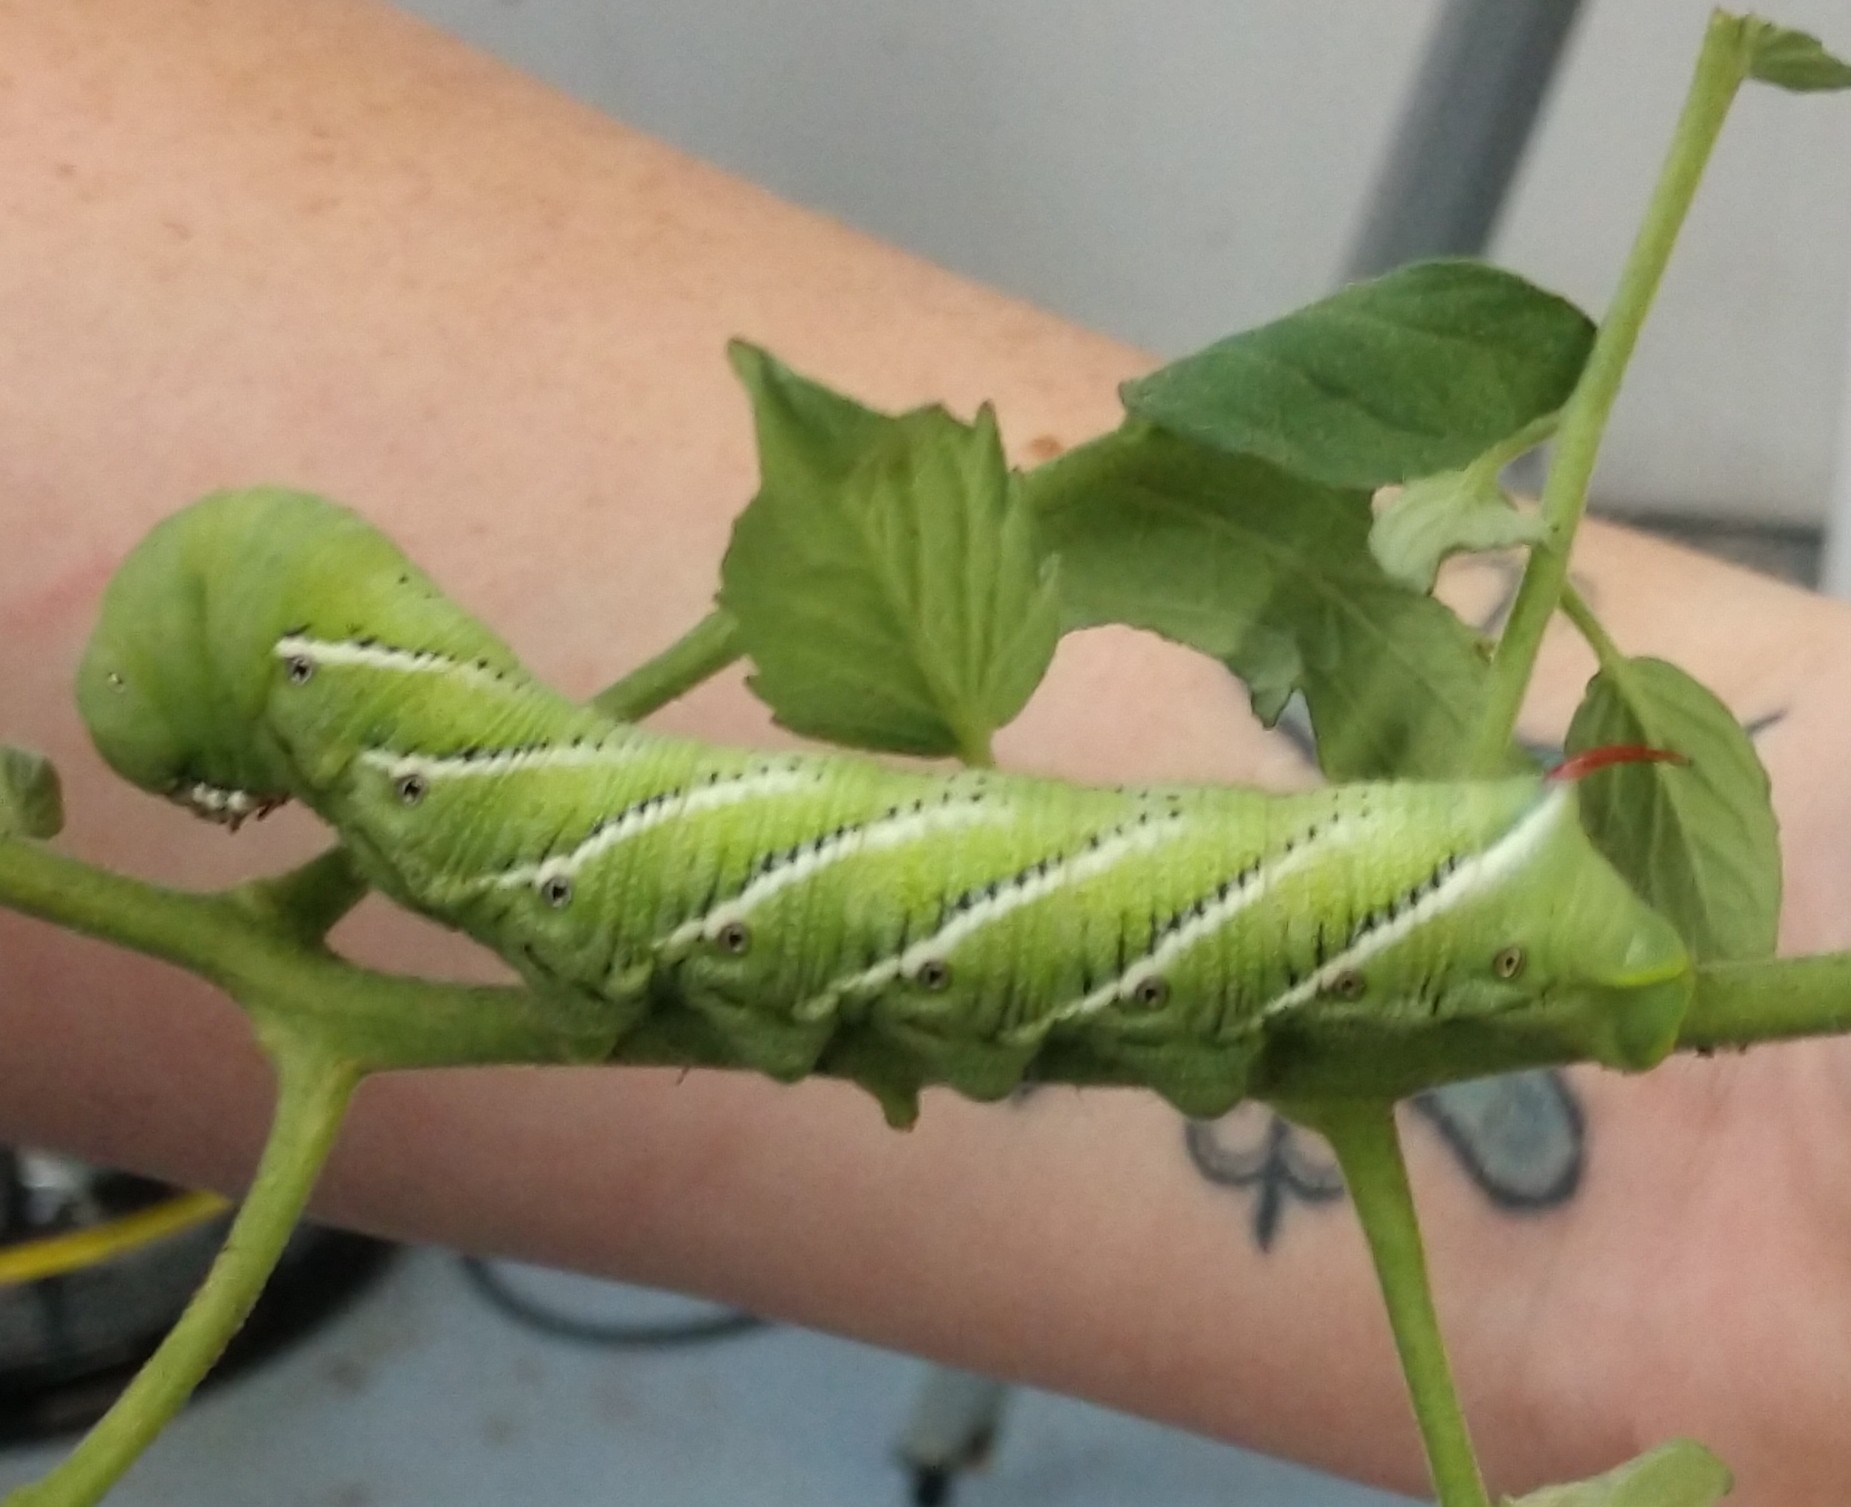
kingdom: Animalia
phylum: Arthropoda
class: Insecta
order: Lepidoptera
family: Sphingidae
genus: Manduca
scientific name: Manduca sexta
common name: Carolina sphinx
